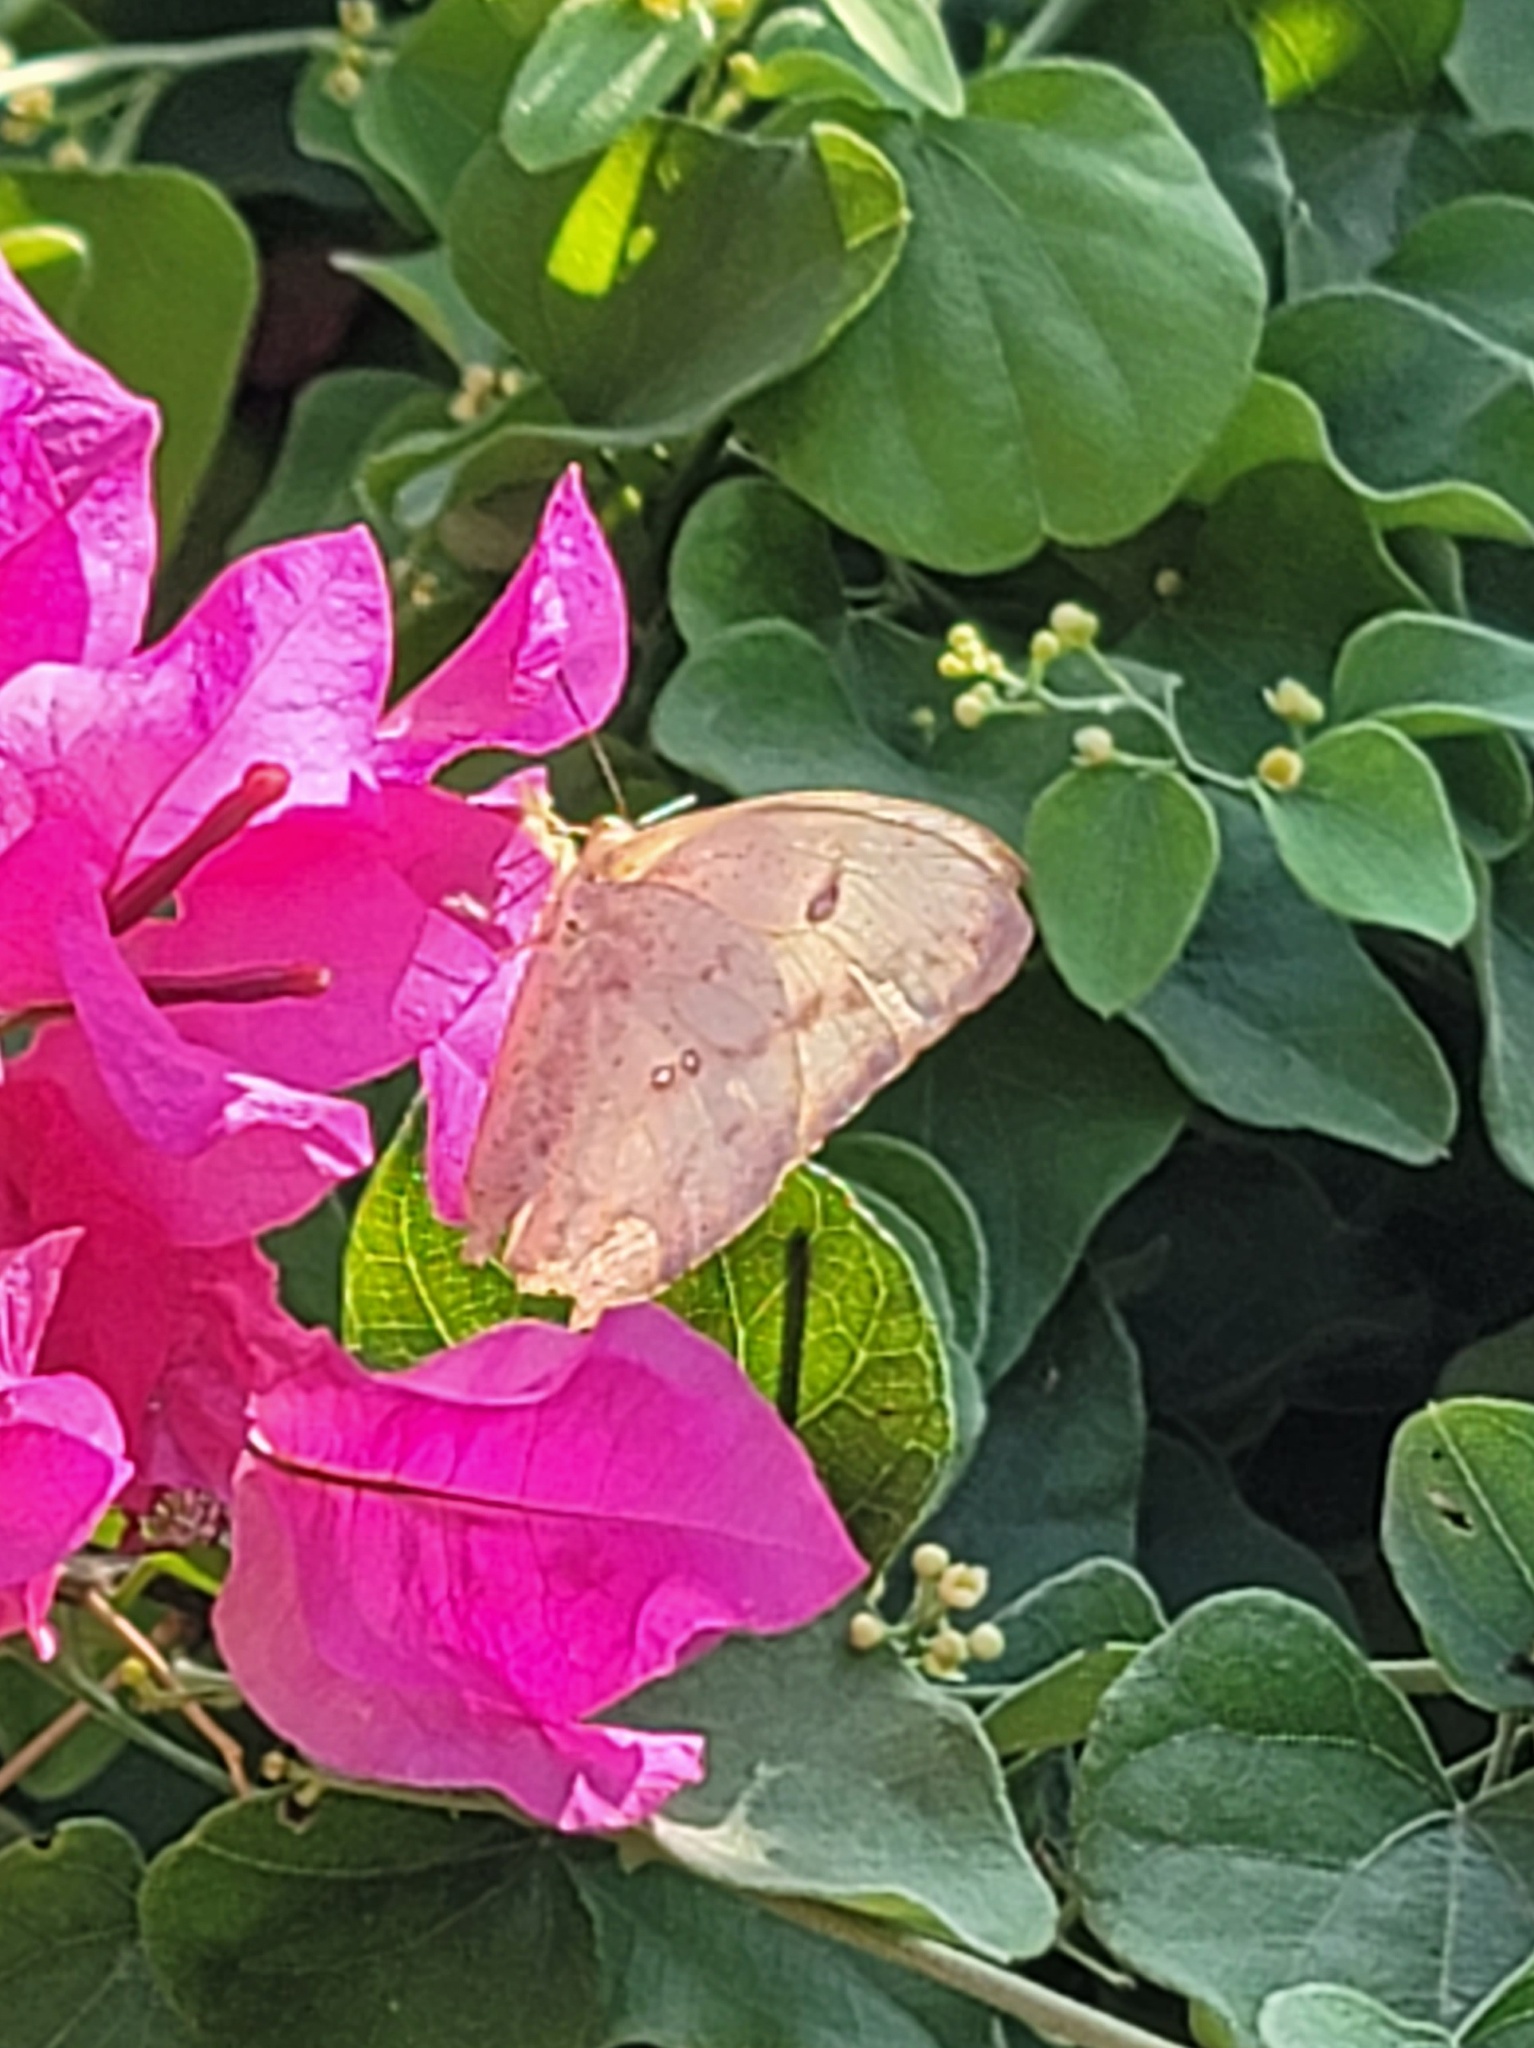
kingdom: Animalia
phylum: Arthropoda
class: Insecta
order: Lepidoptera
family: Pieridae
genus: Phoebis
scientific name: Phoebis agarithe
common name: Large orange sulphur
